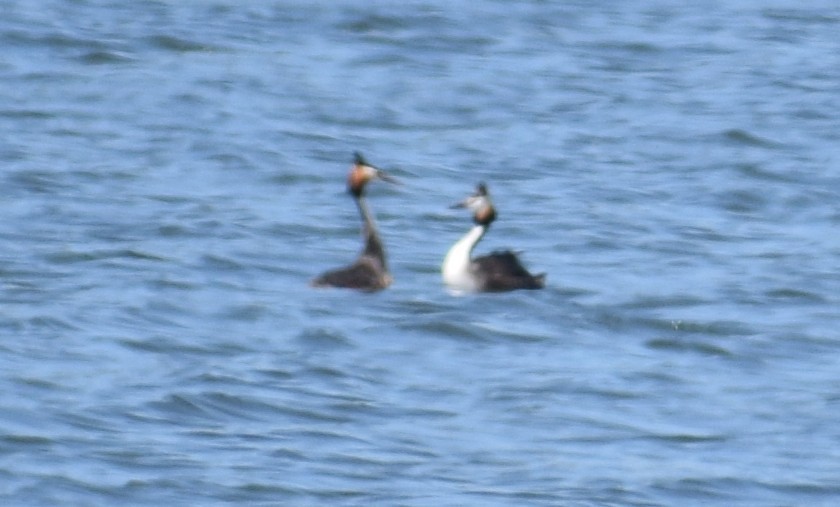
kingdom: Animalia
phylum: Chordata
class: Aves
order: Podicipediformes
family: Podicipedidae
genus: Podiceps
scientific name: Podiceps cristatus
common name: Great crested grebe
